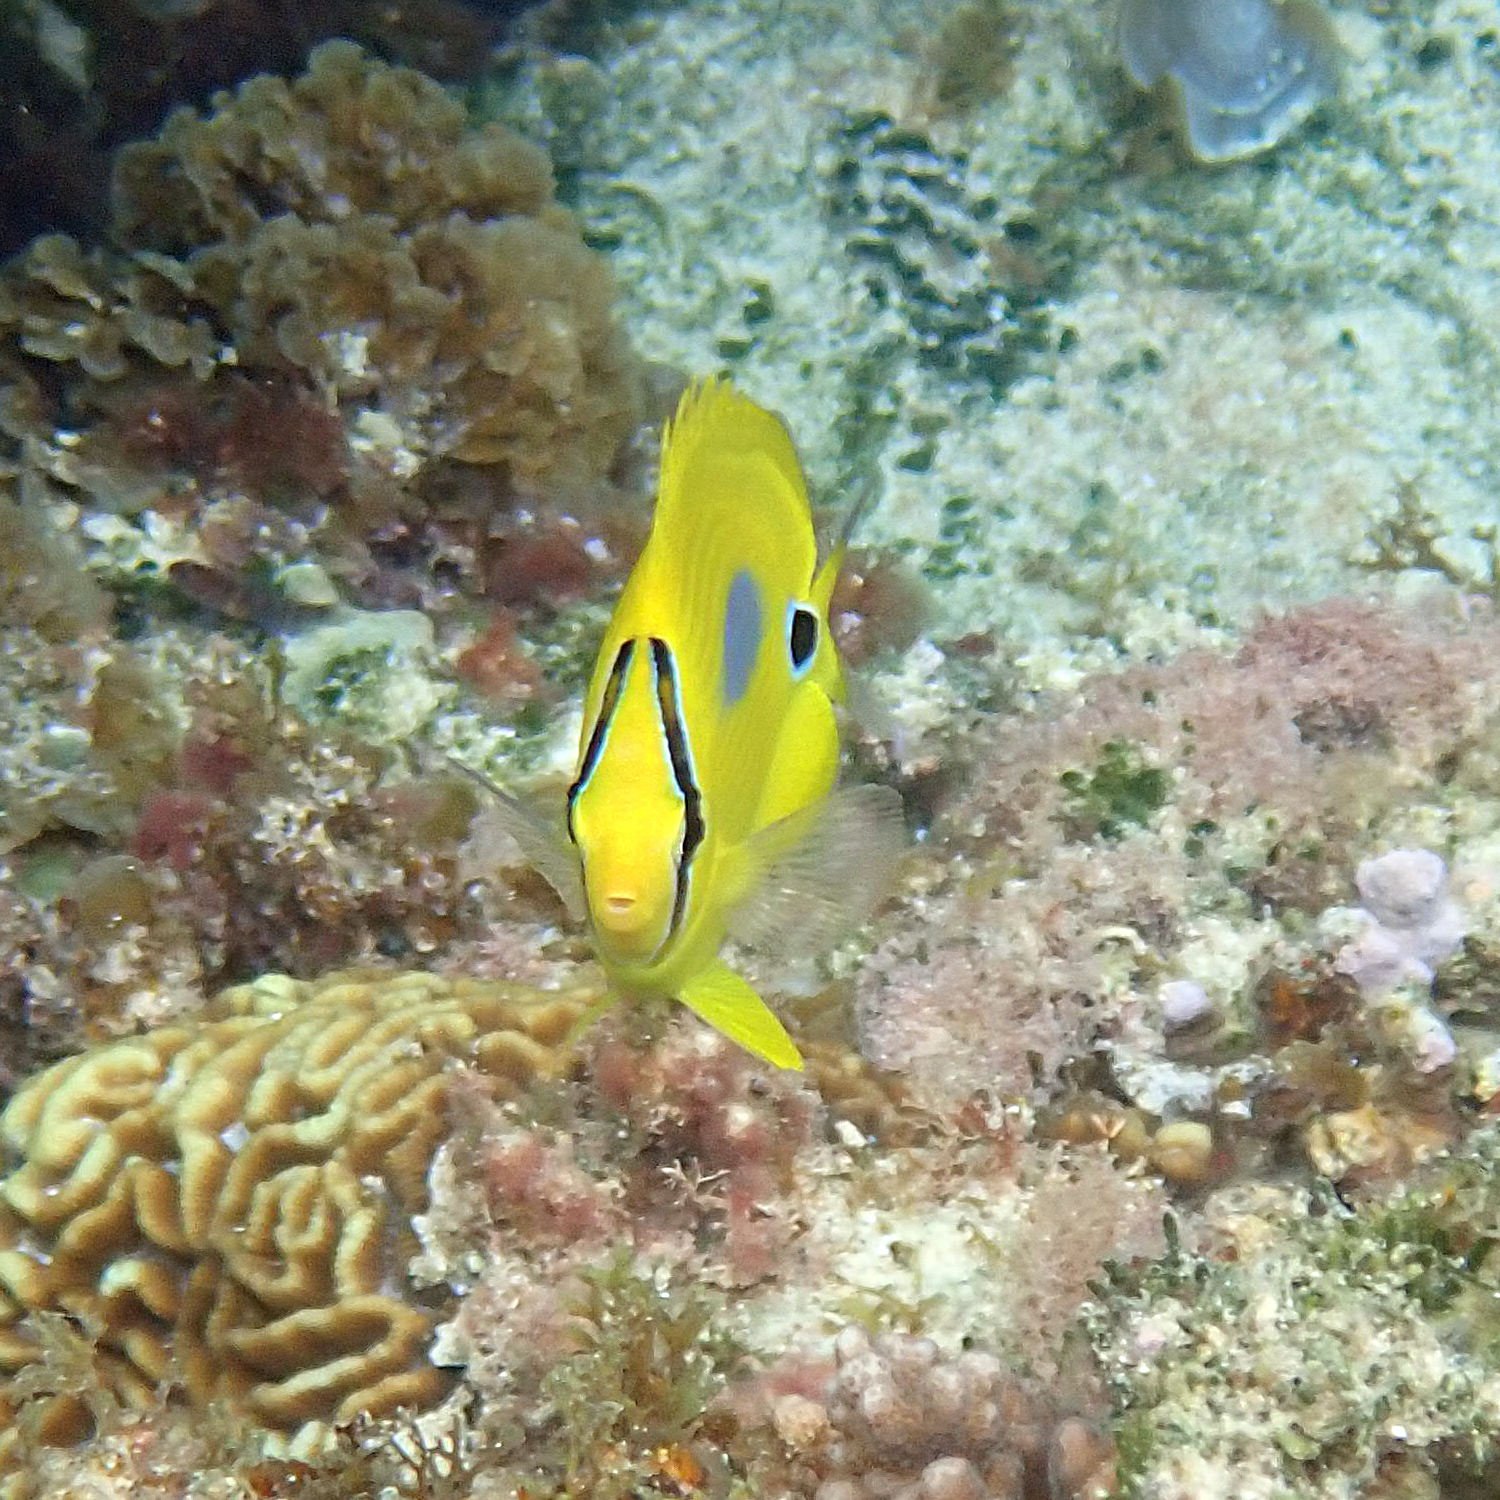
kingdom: Animalia
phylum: Chordata
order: Perciformes
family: Chaetodontidae
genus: Chaetodon
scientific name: Chaetodon plebeius
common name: Bluespot butterflyfish
